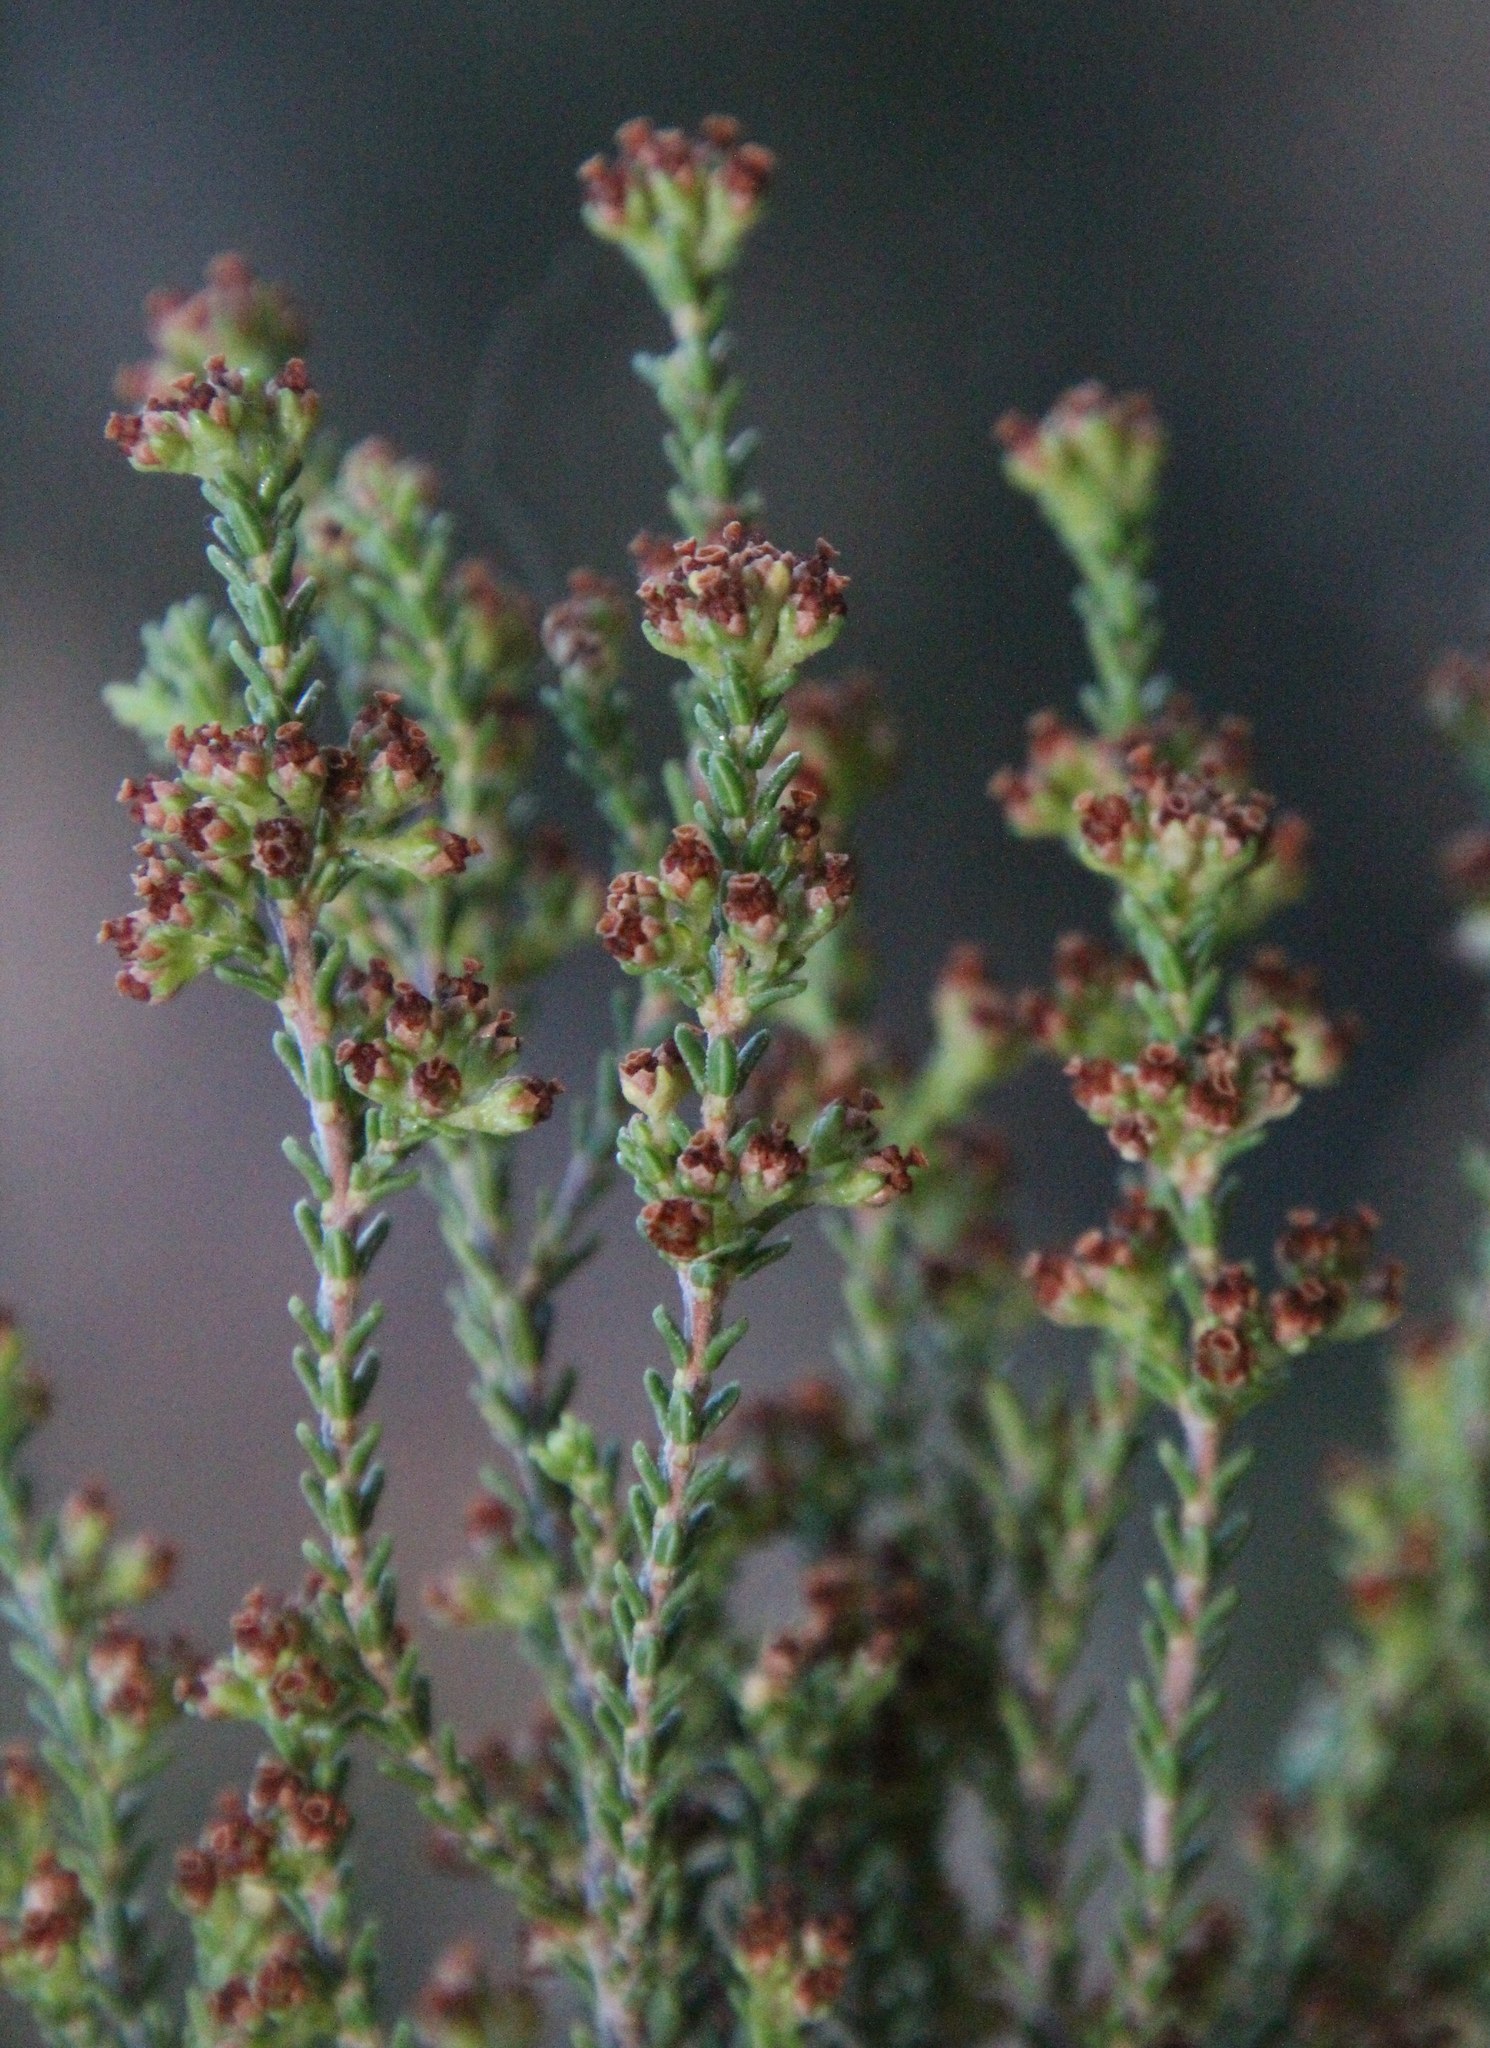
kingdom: Plantae
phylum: Tracheophyta
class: Magnoliopsida
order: Ericales
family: Ericaceae
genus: Erica
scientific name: Erica tristis
